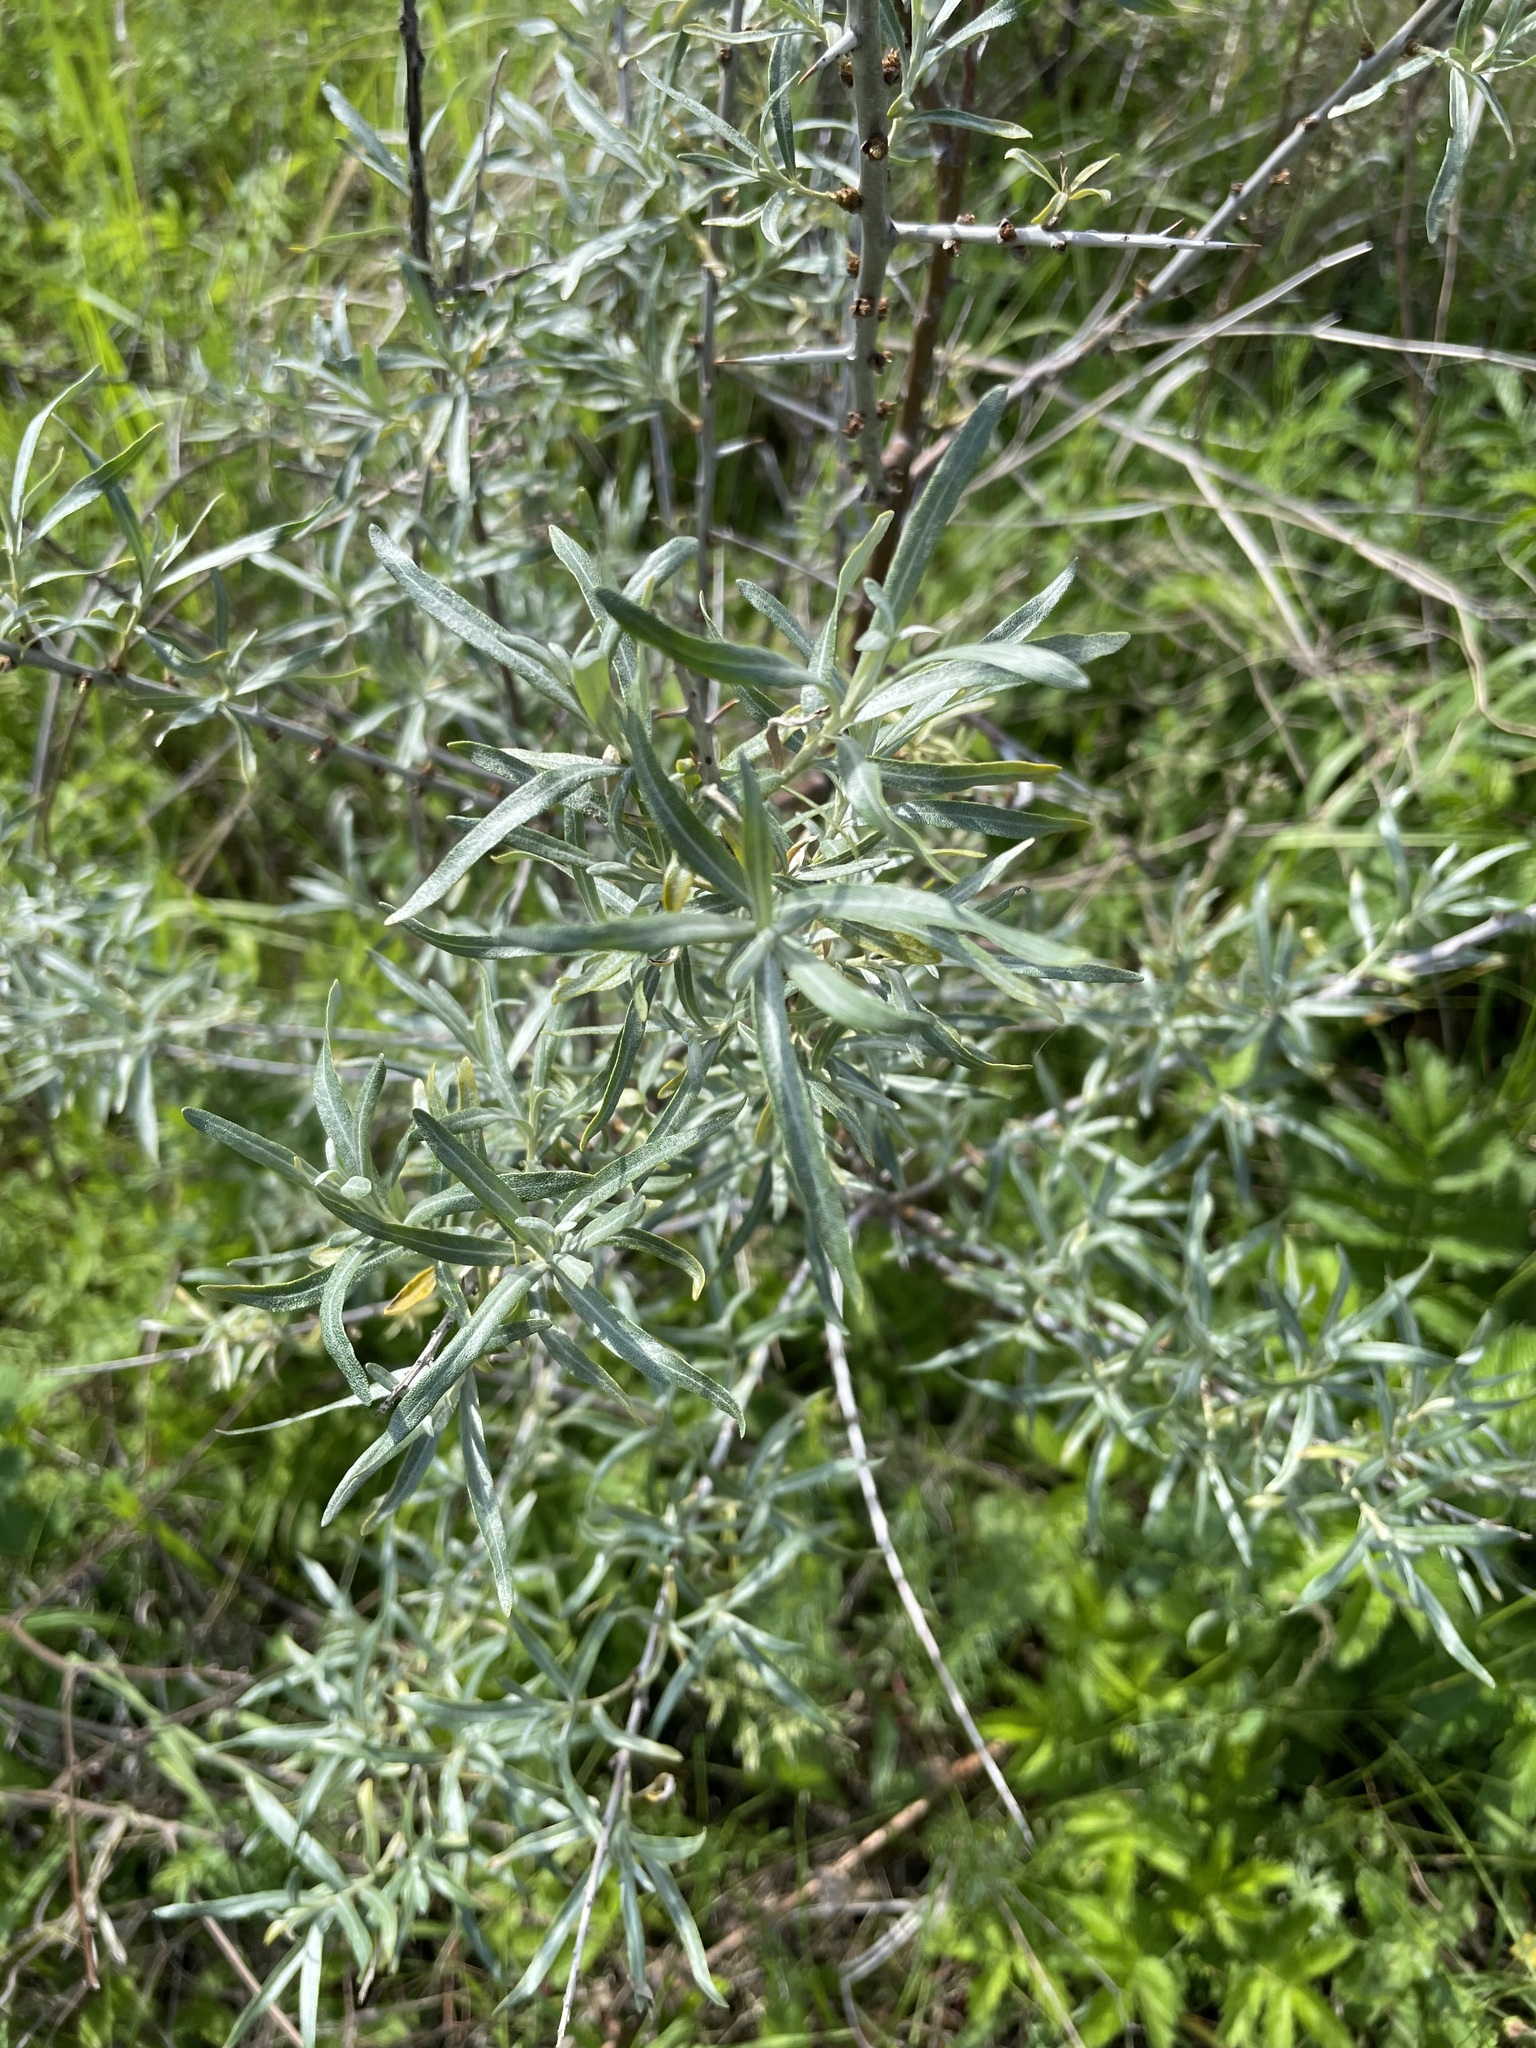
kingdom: Plantae
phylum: Tracheophyta
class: Magnoliopsida
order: Rosales
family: Elaeagnaceae
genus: Hippophae
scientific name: Hippophae rhamnoides
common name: Sea-buckthorn
